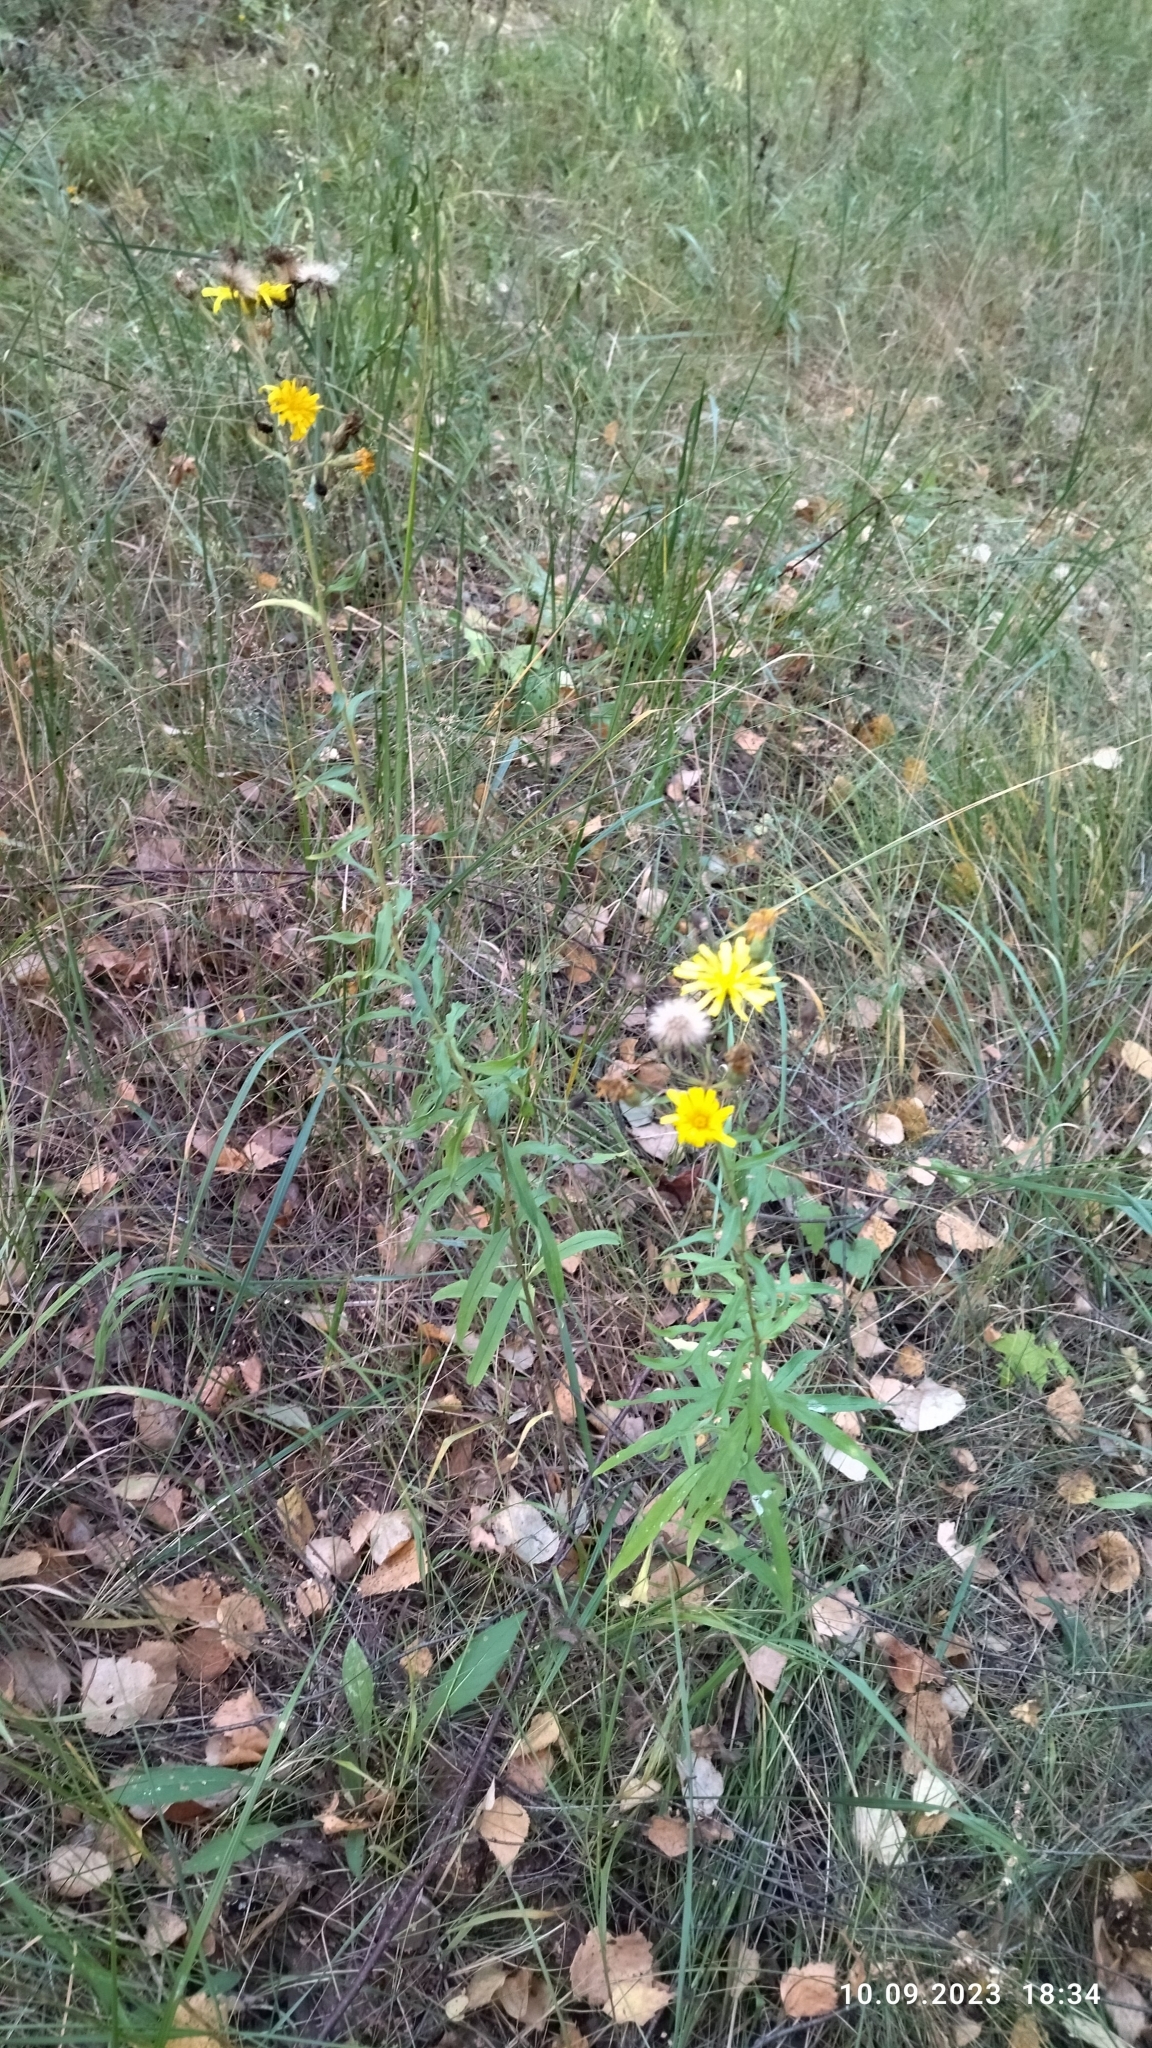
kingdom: Plantae
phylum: Tracheophyta
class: Magnoliopsida
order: Asterales
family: Asteraceae
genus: Hieracium
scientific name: Hieracium umbellatum
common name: Northern hawkweed
